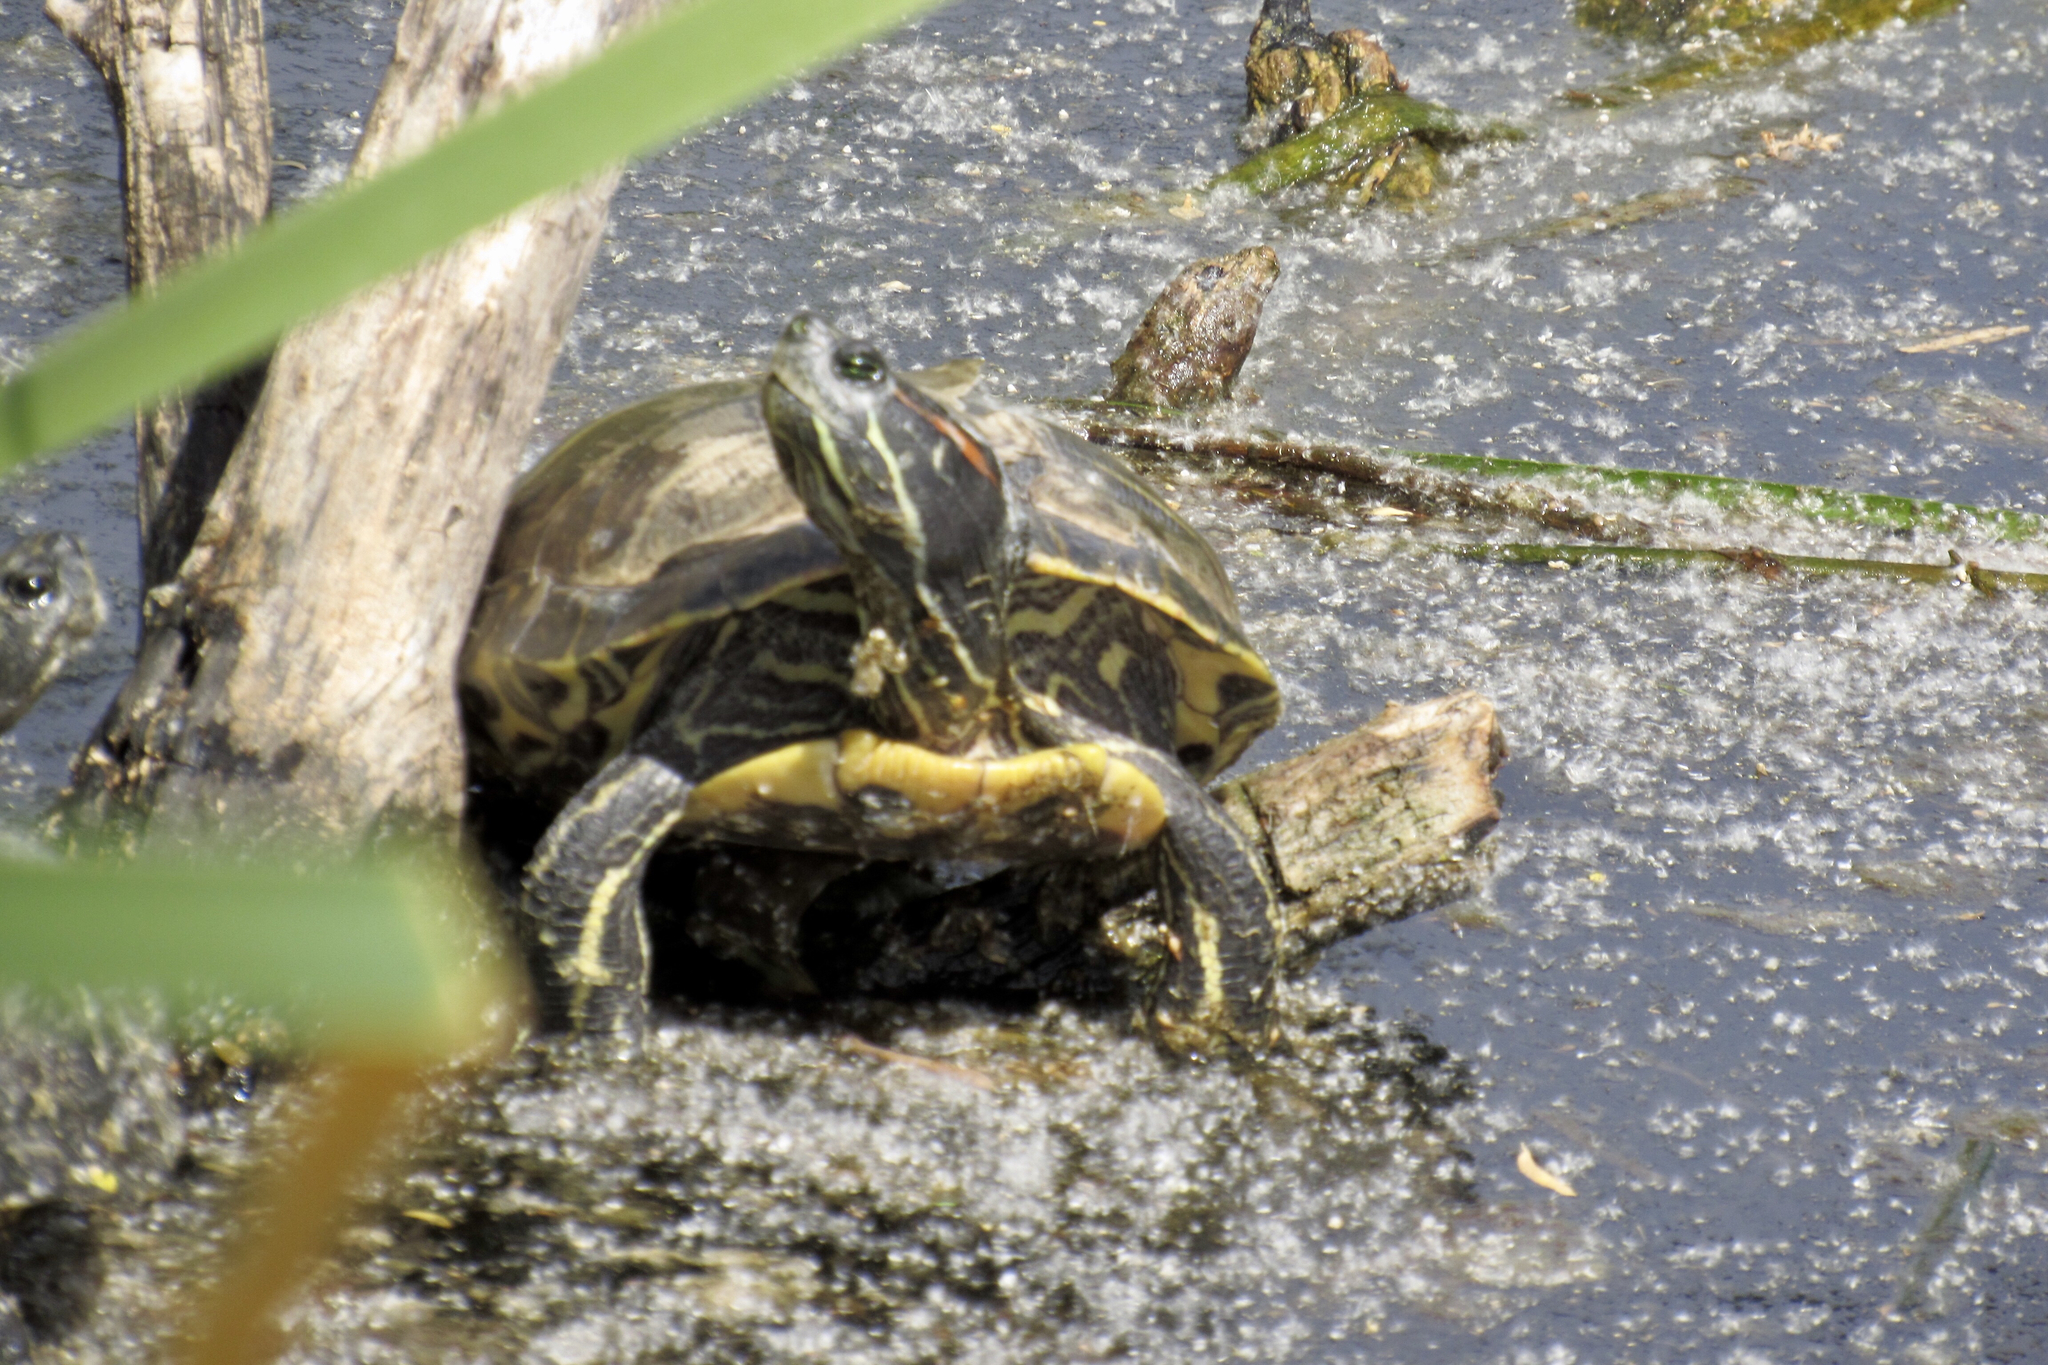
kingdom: Animalia
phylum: Chordata
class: Testudines
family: Emydidae
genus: Trachemys
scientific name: Trachemys scripta
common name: Slider
